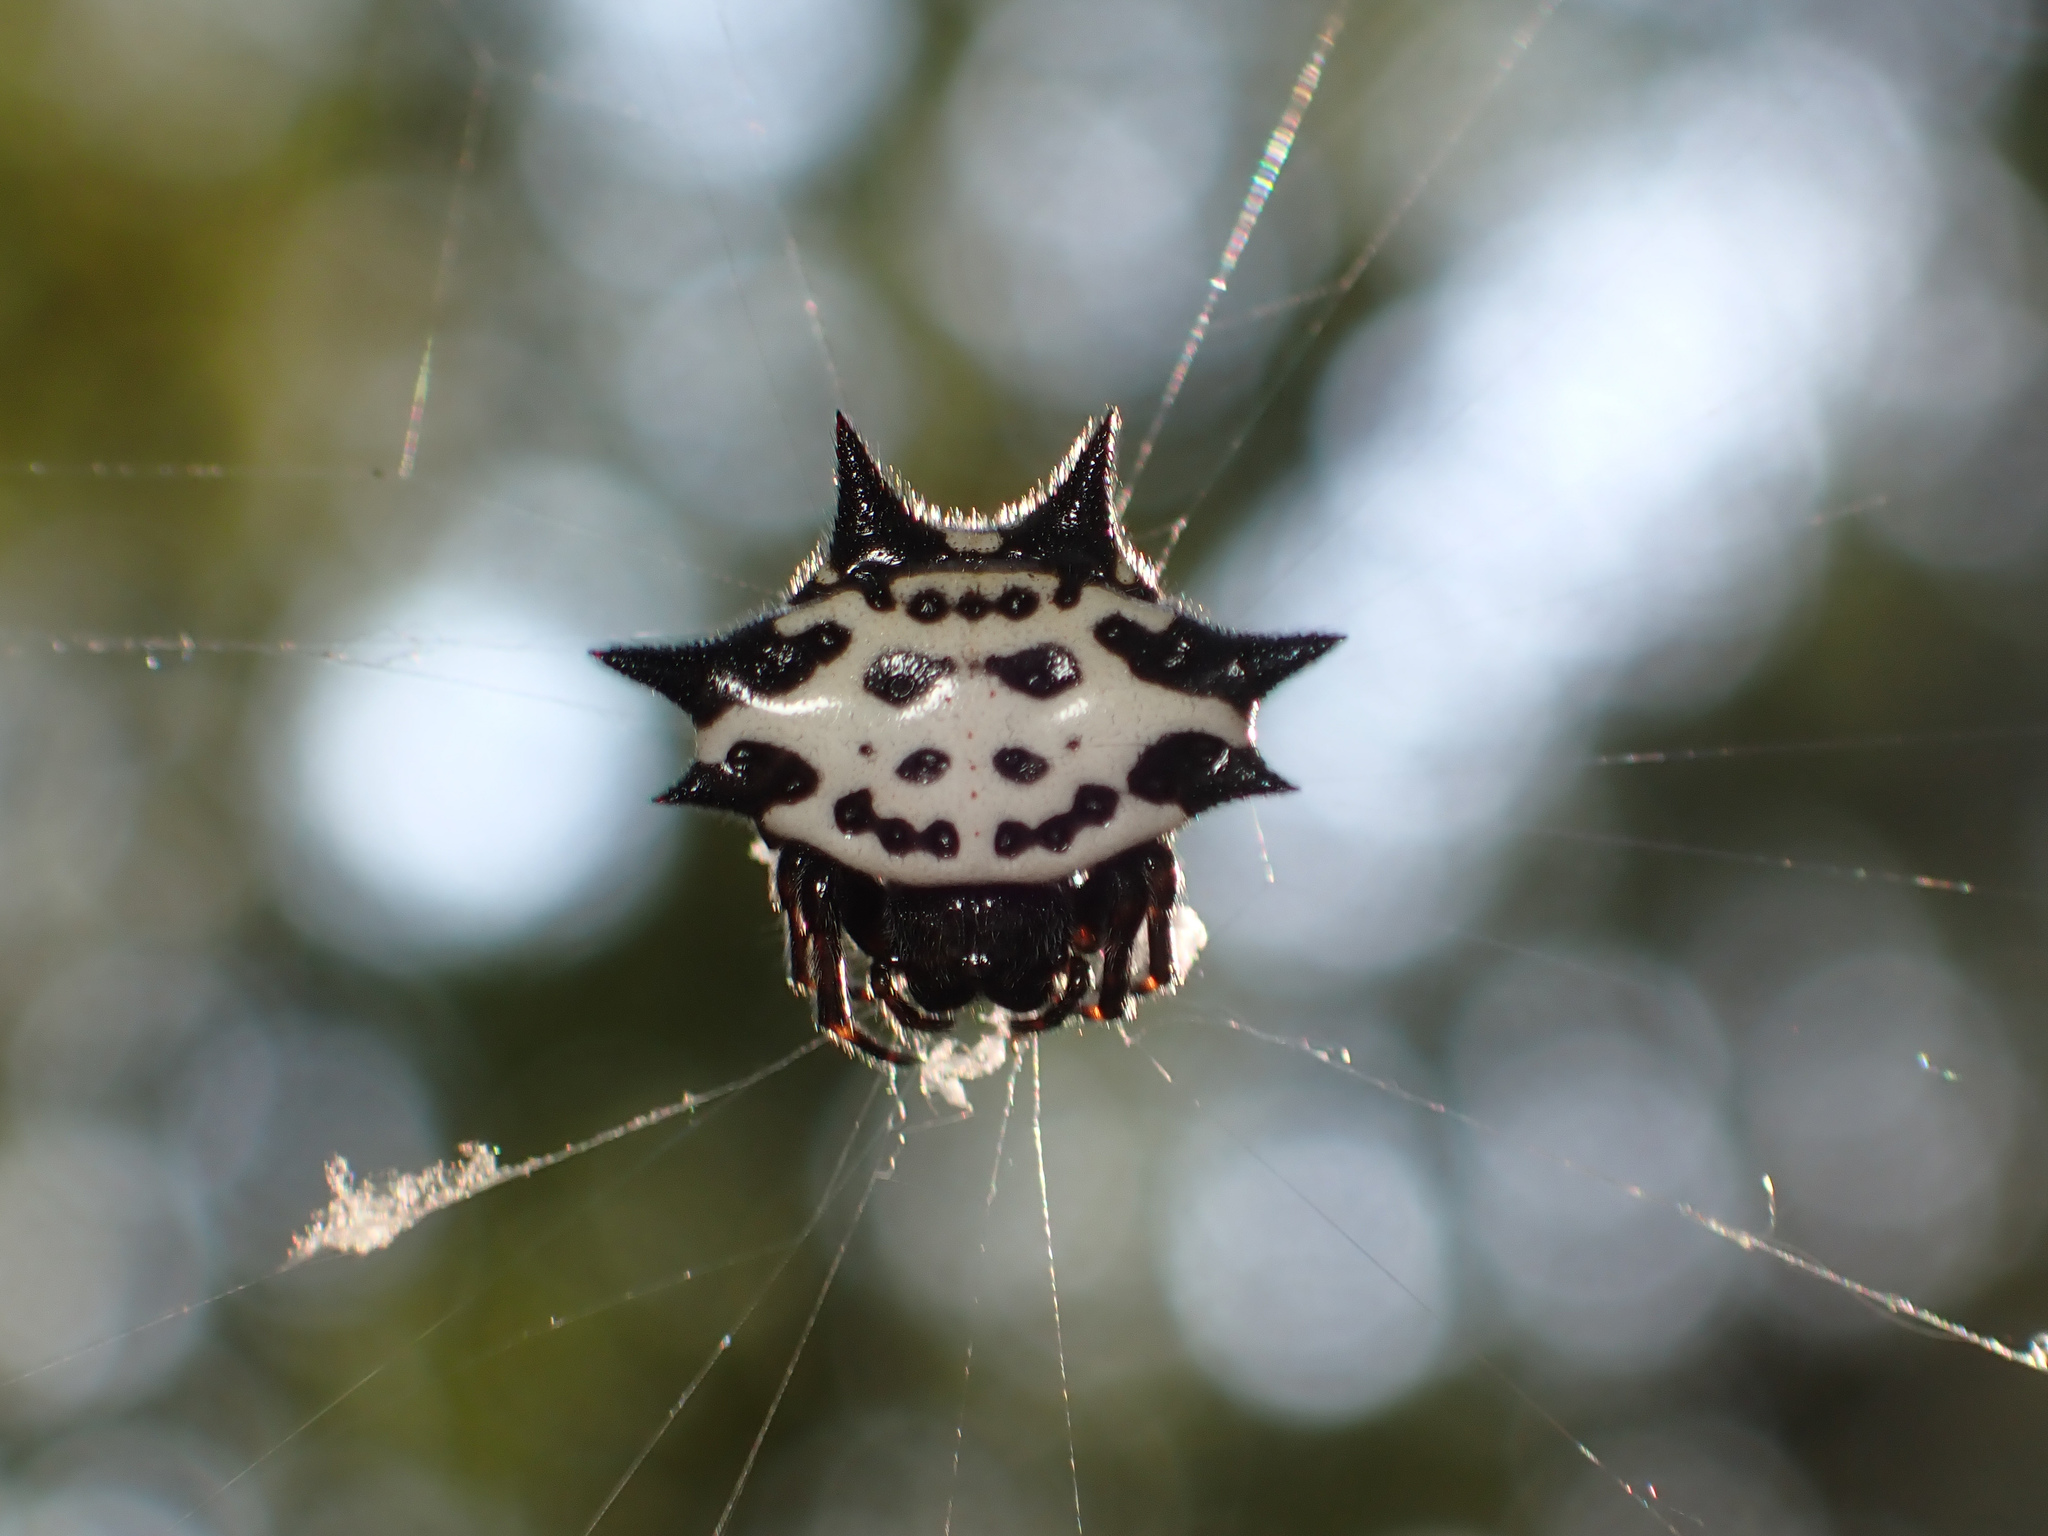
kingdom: Animalia
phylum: Arthropoda
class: Arachnida
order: Araneae
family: Araneidae
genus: Gasteracantha
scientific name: Gasteracantha cancriformis
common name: Orb weavers
